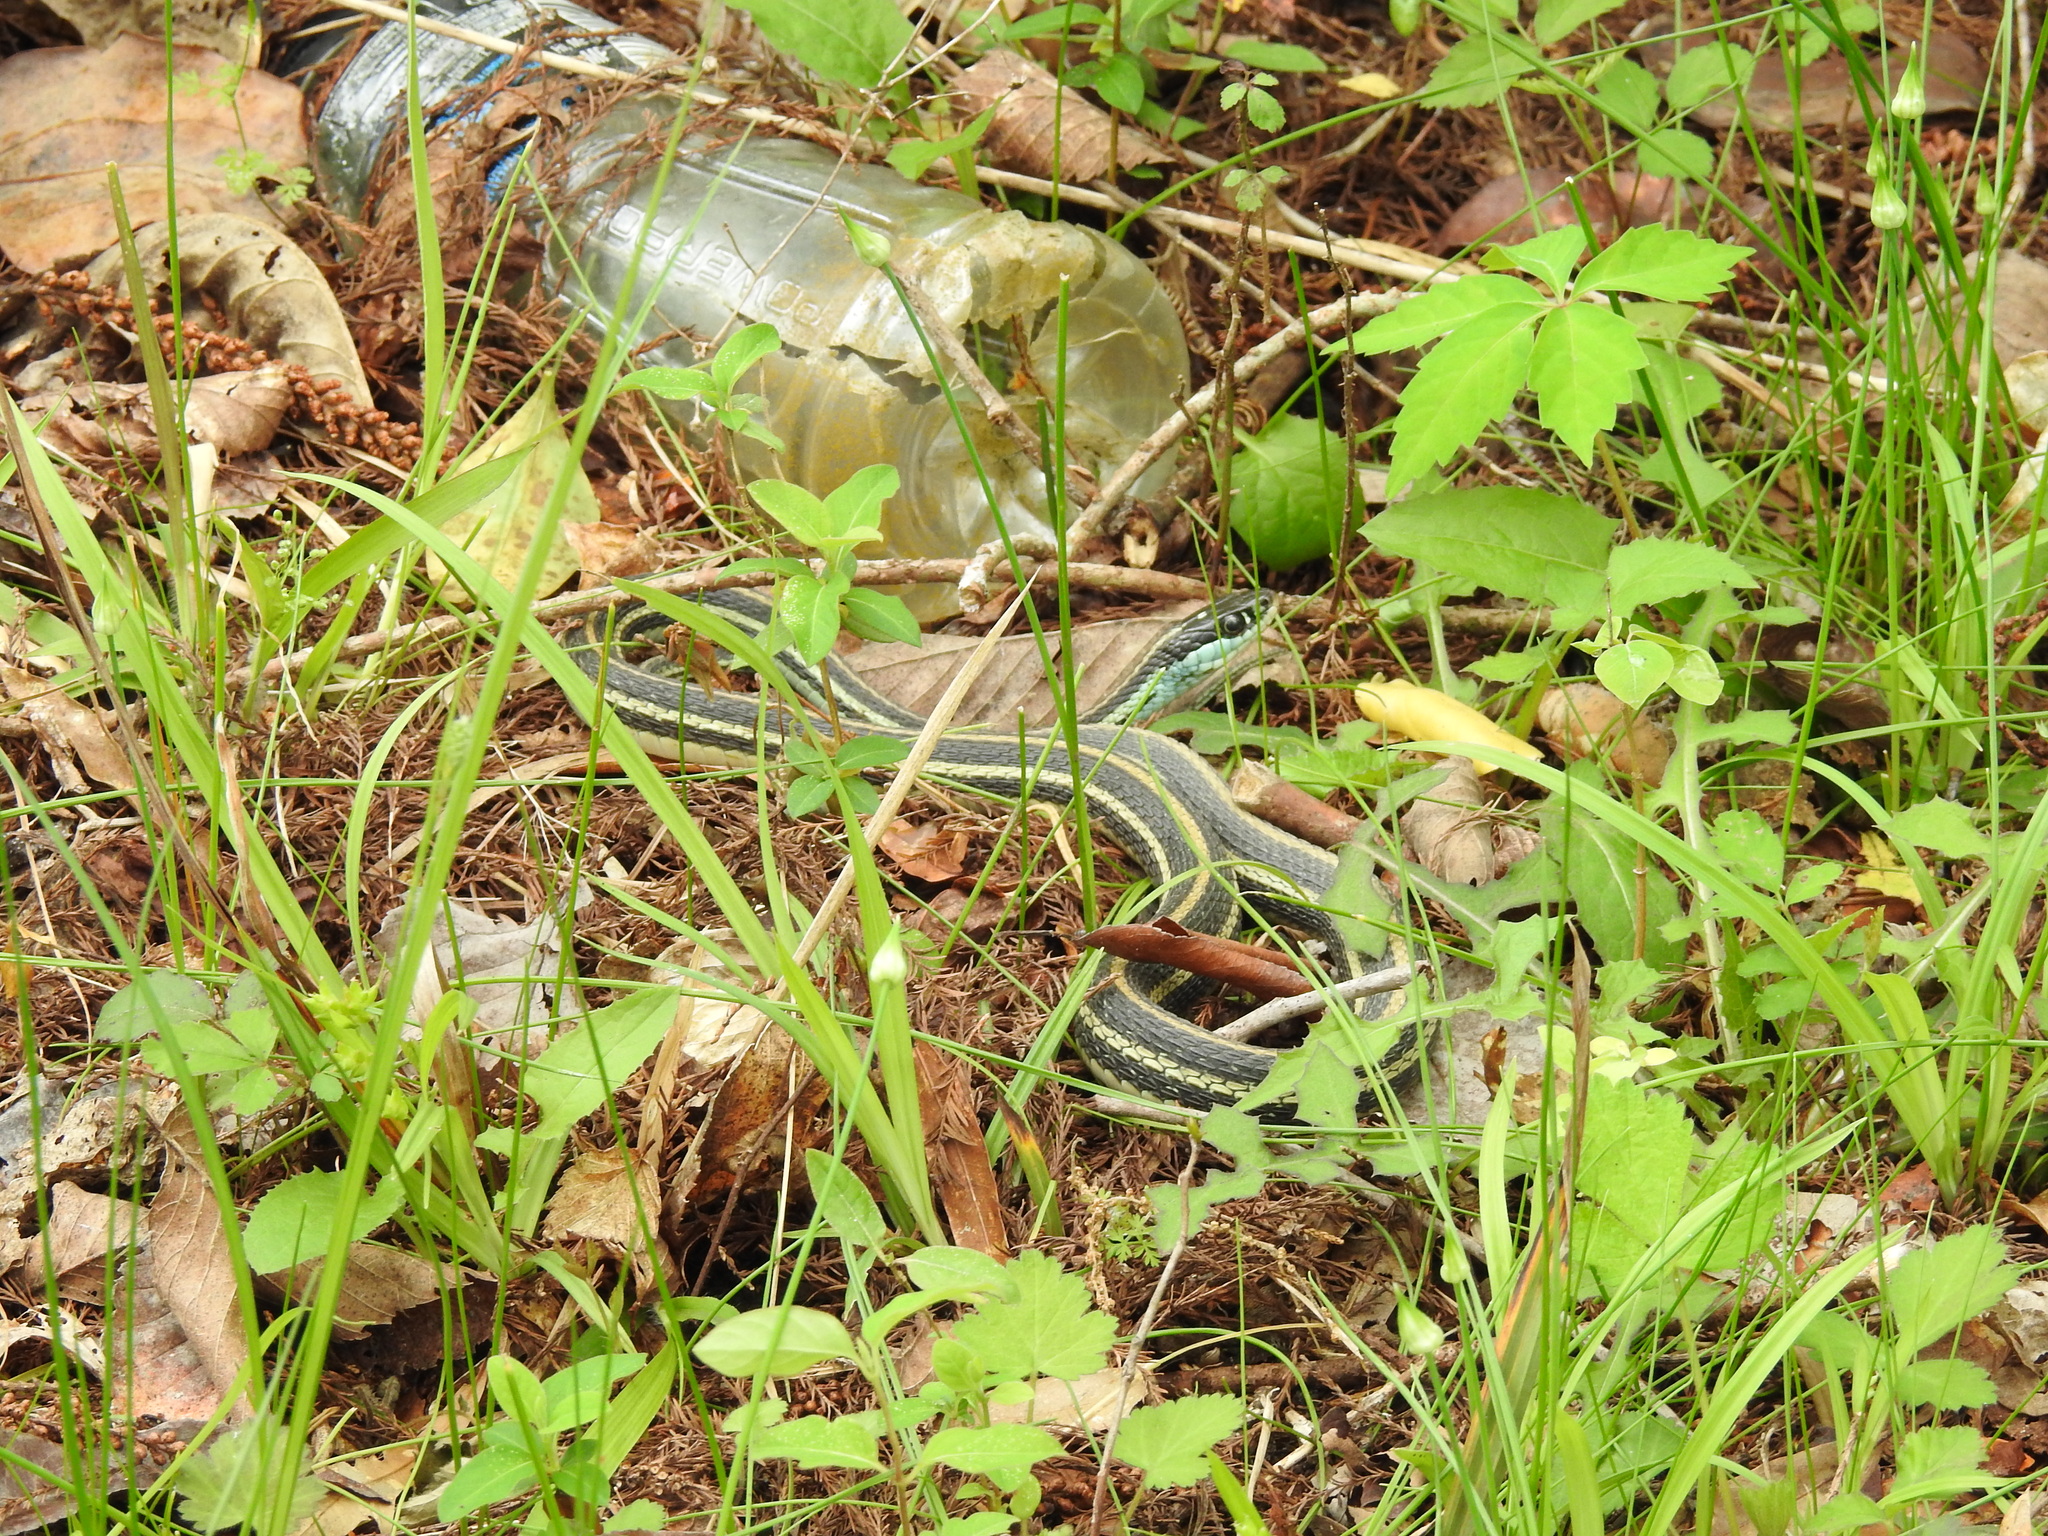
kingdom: Animalia
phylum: Chordata
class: Squamata
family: Colubridae
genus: Thamnophis
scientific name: Thamnophis proximus
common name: Western ribbon snake
